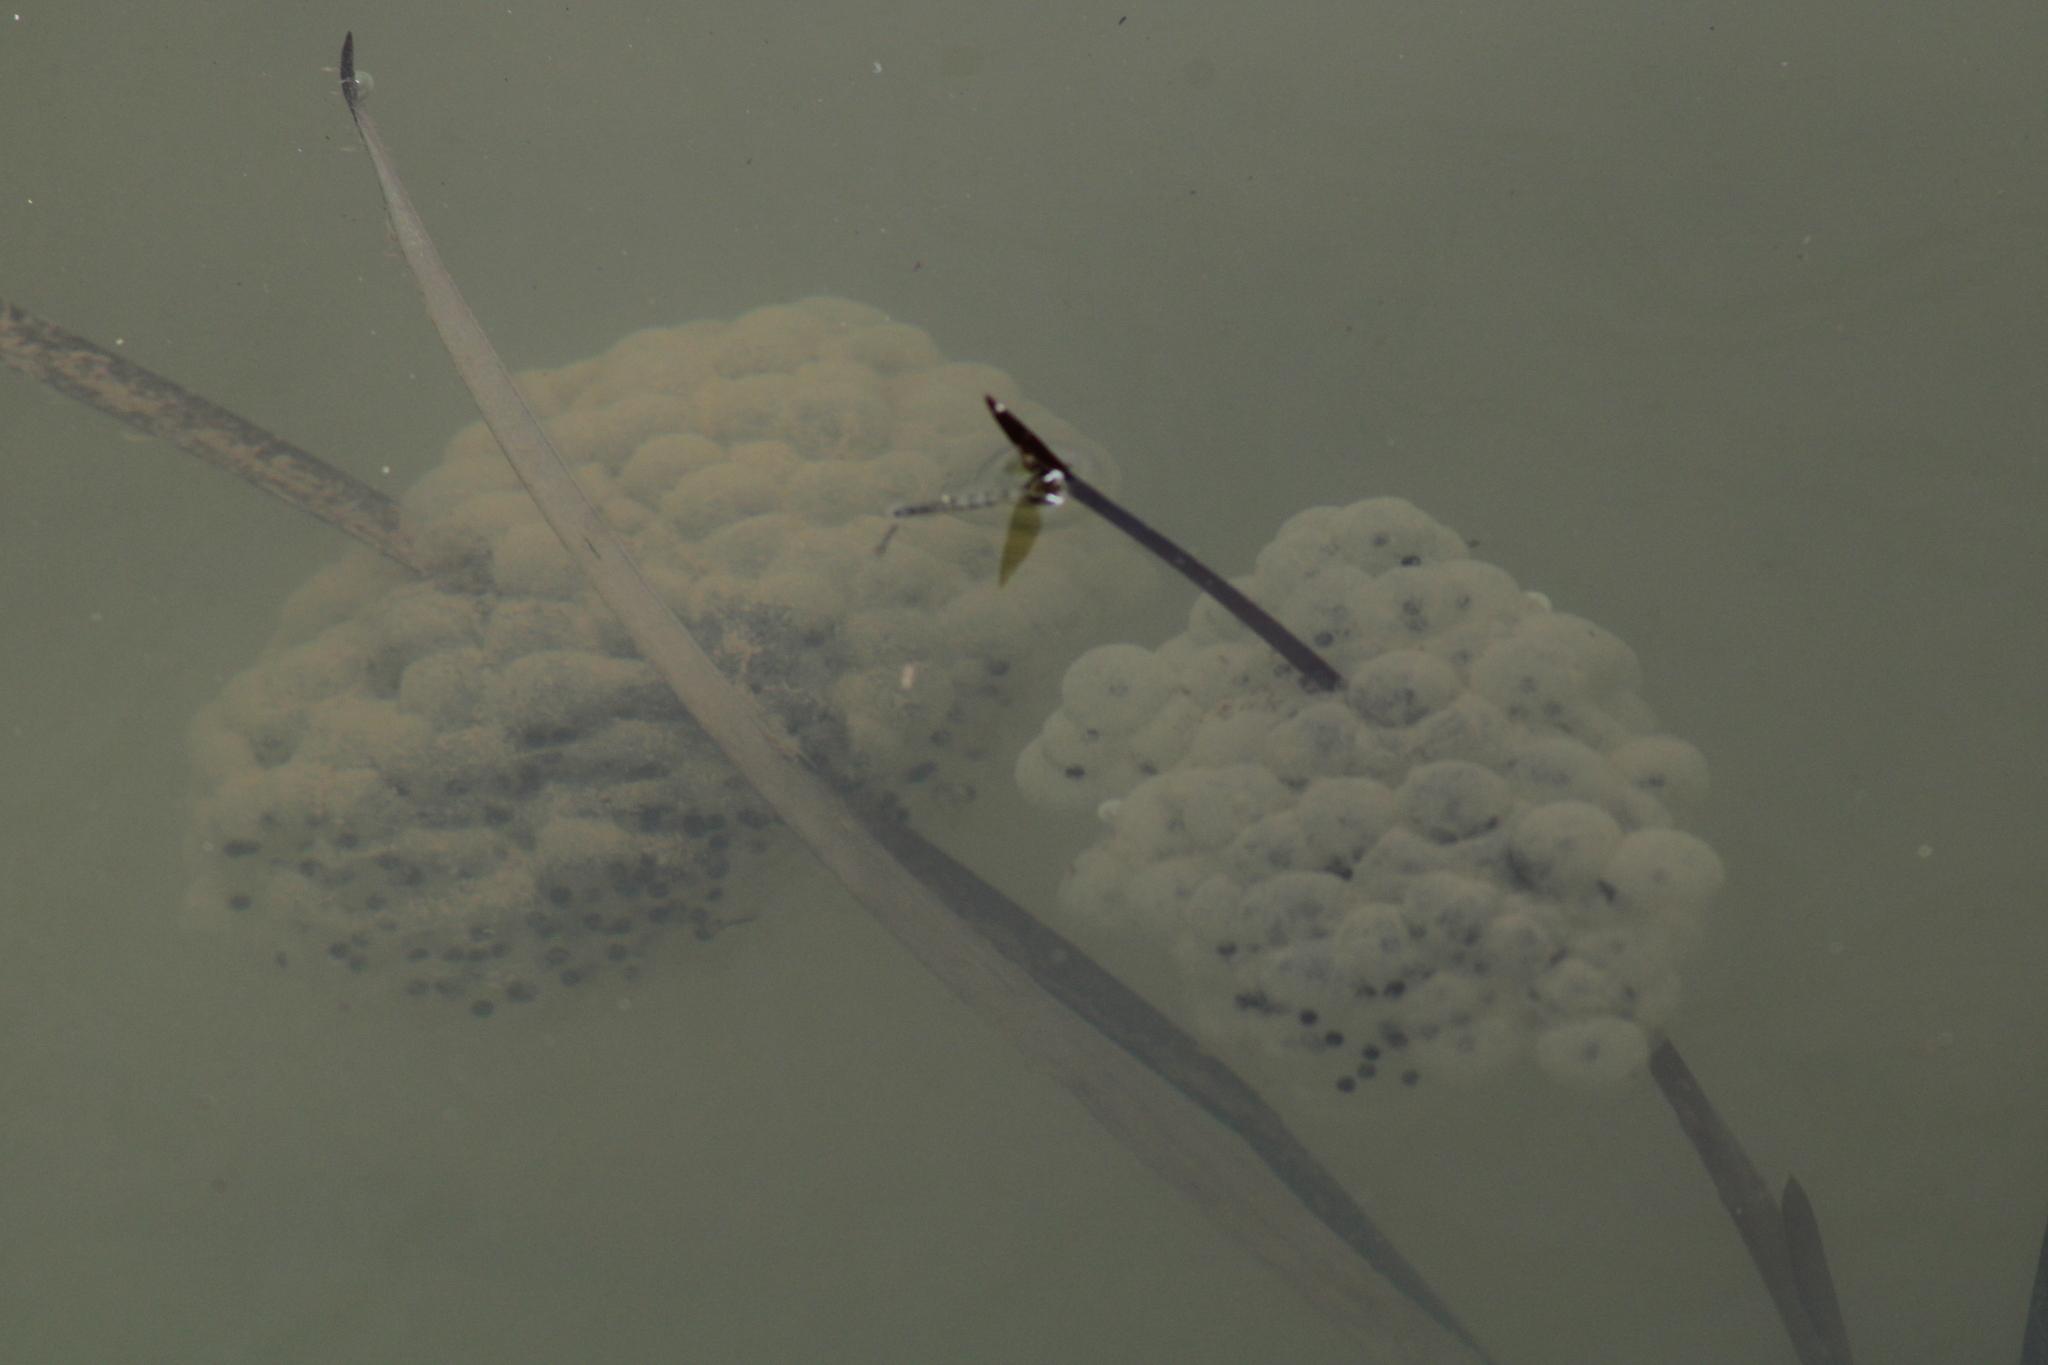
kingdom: Animalia
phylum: Chordata
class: Amphibia
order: Anura
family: Ranidae
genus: Rana
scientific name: Rana dalmatina
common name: Agile frog
